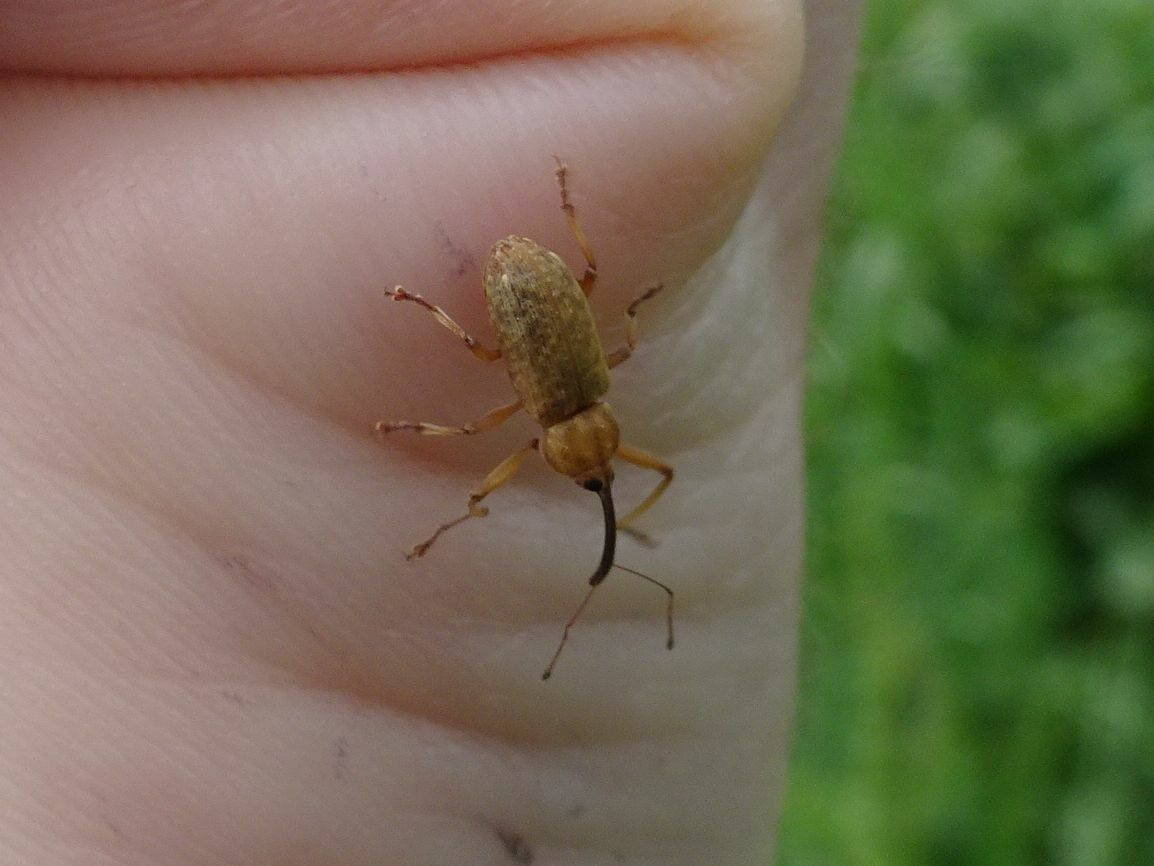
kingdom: Animalia
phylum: Arthropoda
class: Insecta
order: Coleoptera
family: Curculionidae
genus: Dorytomus
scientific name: Dorytomus longimanus
